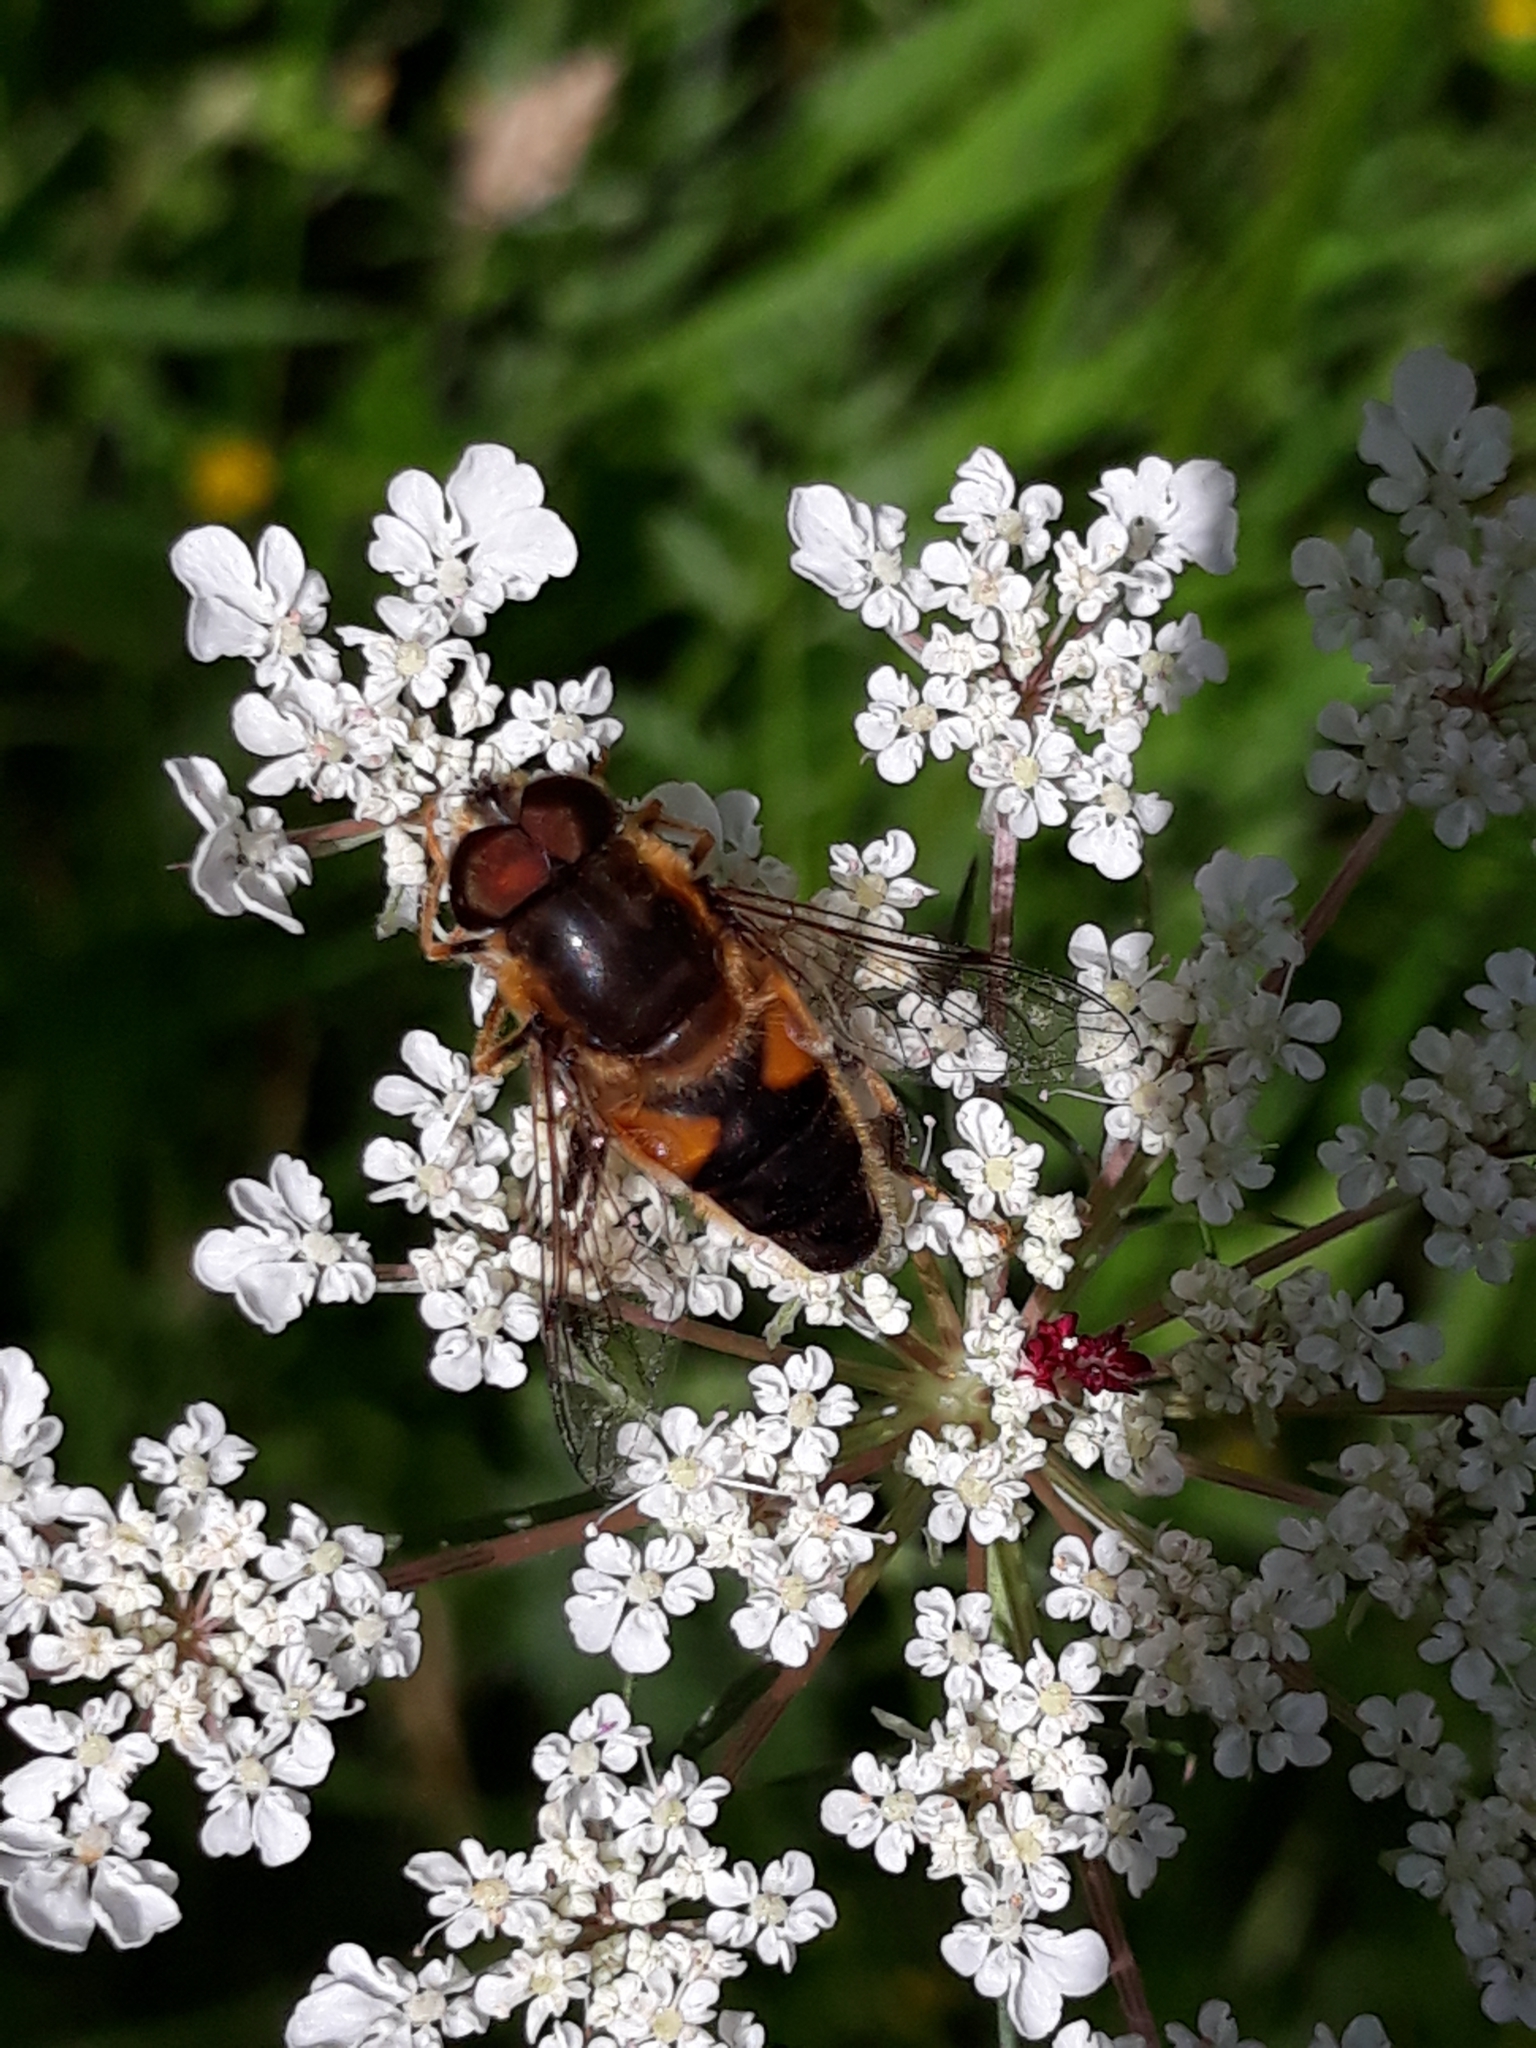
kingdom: Animalia
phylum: Arthropoda
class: Insecta
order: Diptera
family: Syrphidae
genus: Eristalis
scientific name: Eristalis pertinax
